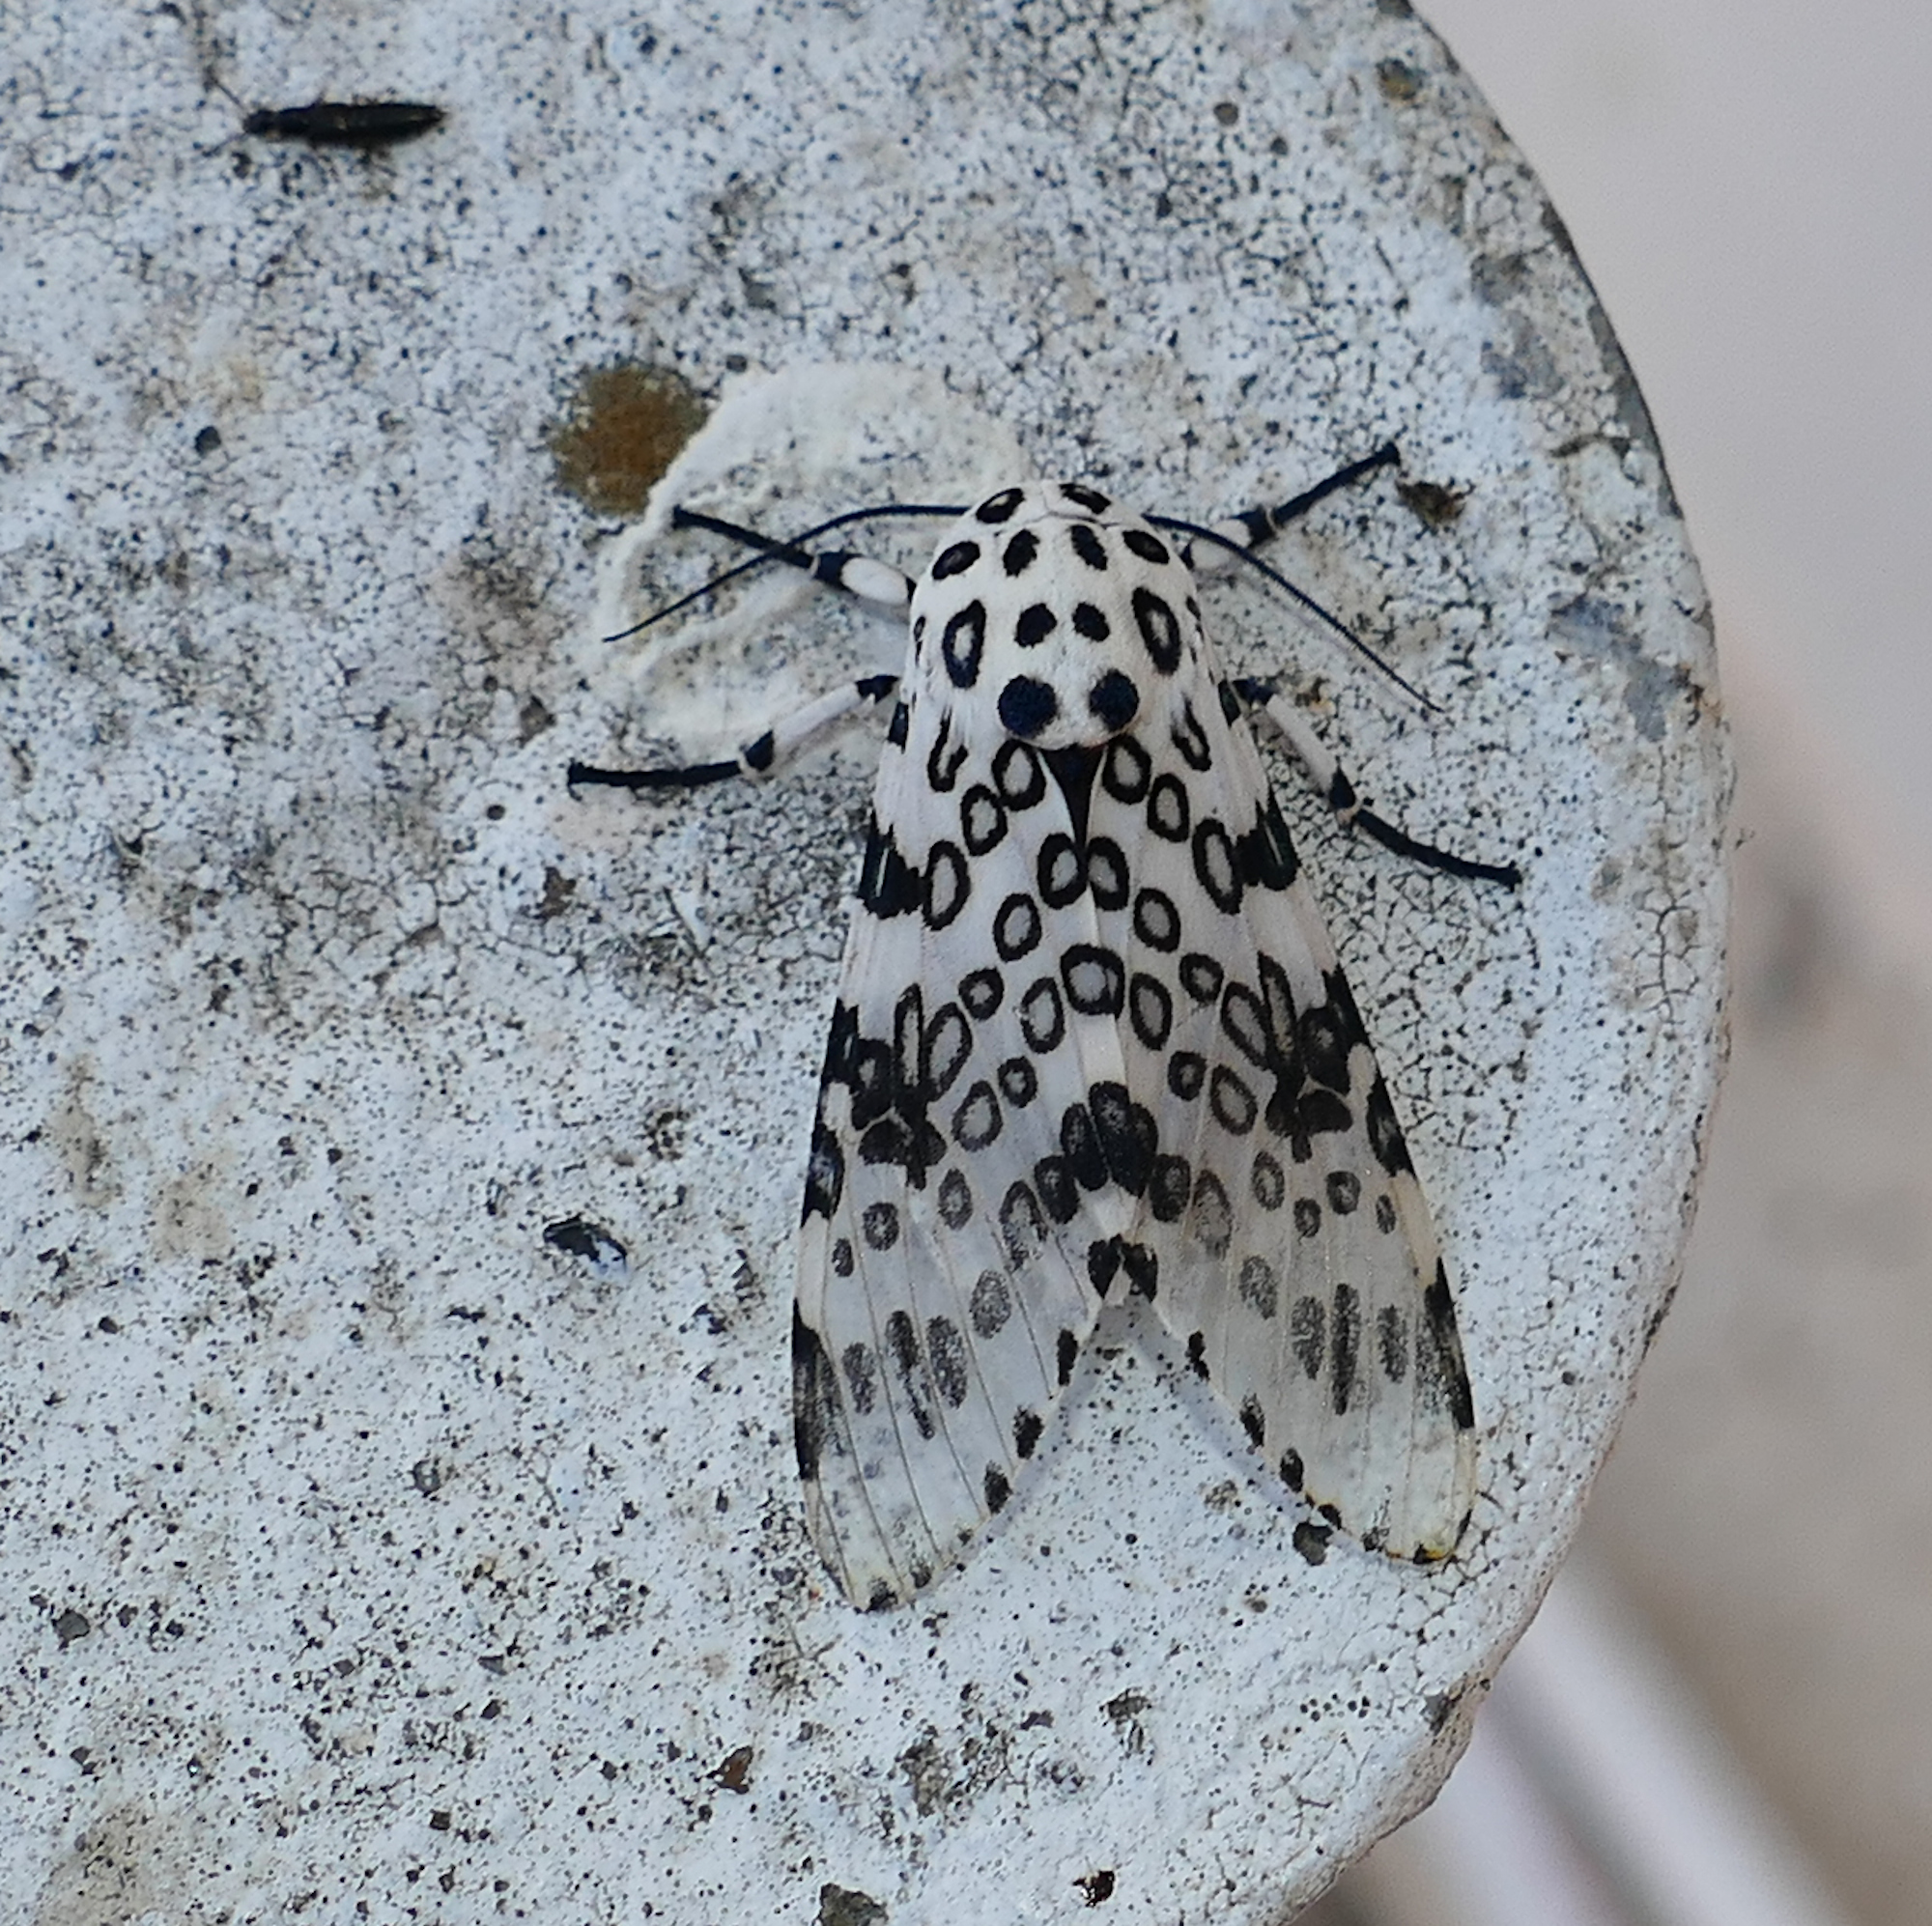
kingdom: Animalia
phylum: Arthropoda
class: Insecta
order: Lepidoptera
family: Erebidae
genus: Hypercompe
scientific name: Hypercompe scribonia
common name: Giant leopard moth
